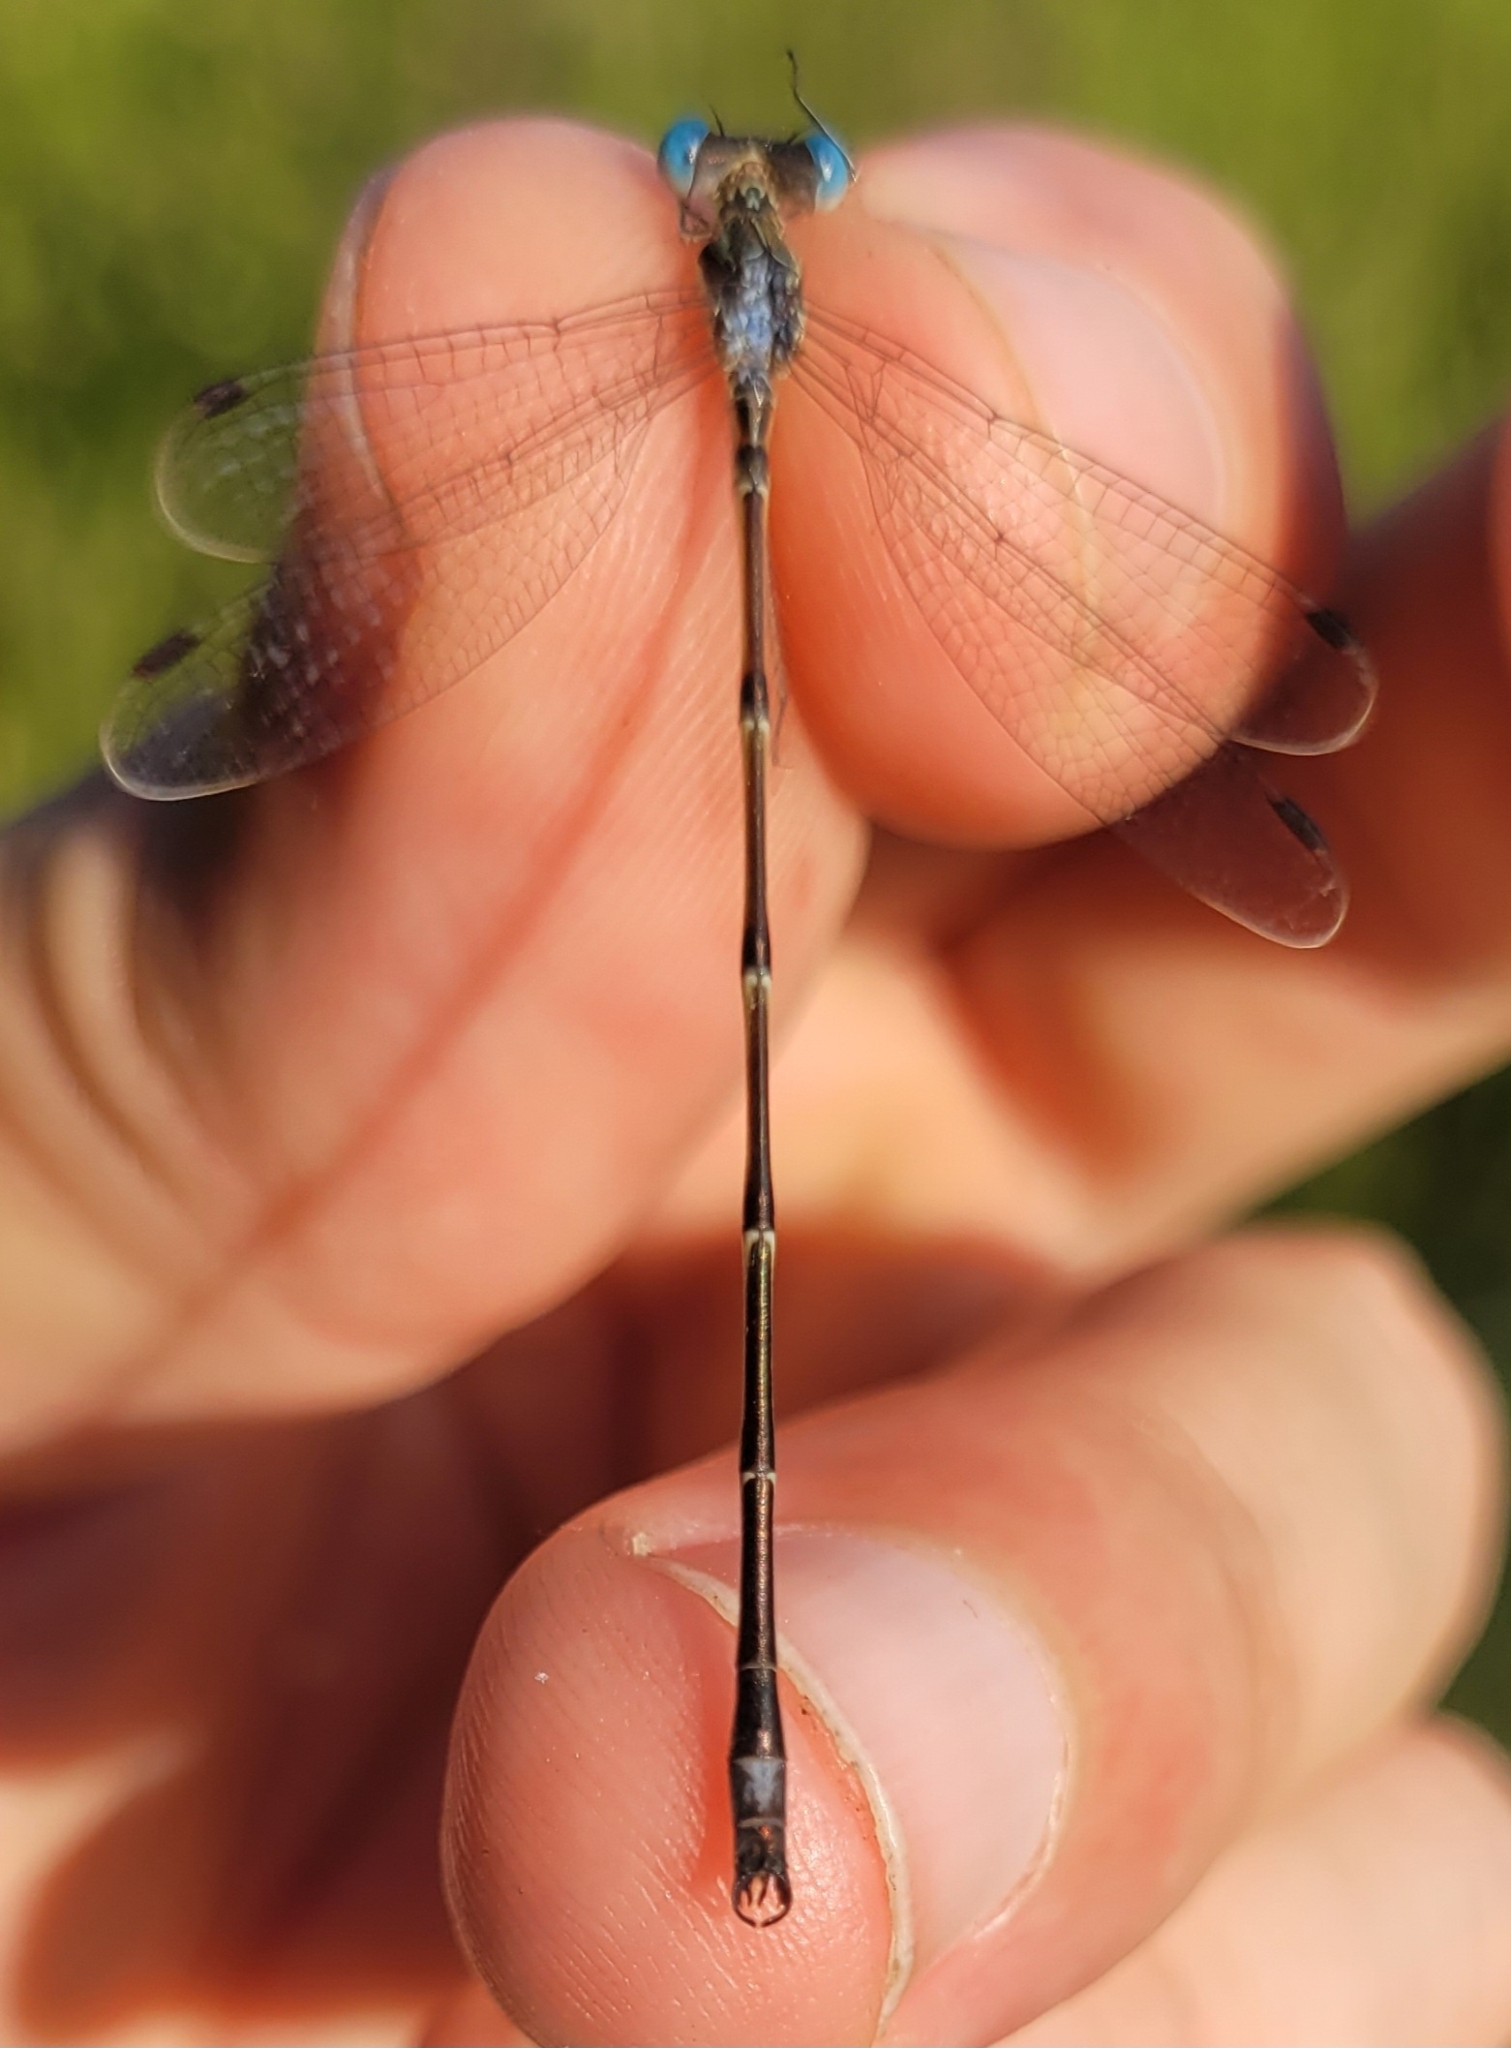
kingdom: Animalia
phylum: Arthropoda
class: Insecta
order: Odonata
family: Lestidae
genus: Lestes
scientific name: Lestes rectangularis
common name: Slender spreadwing
